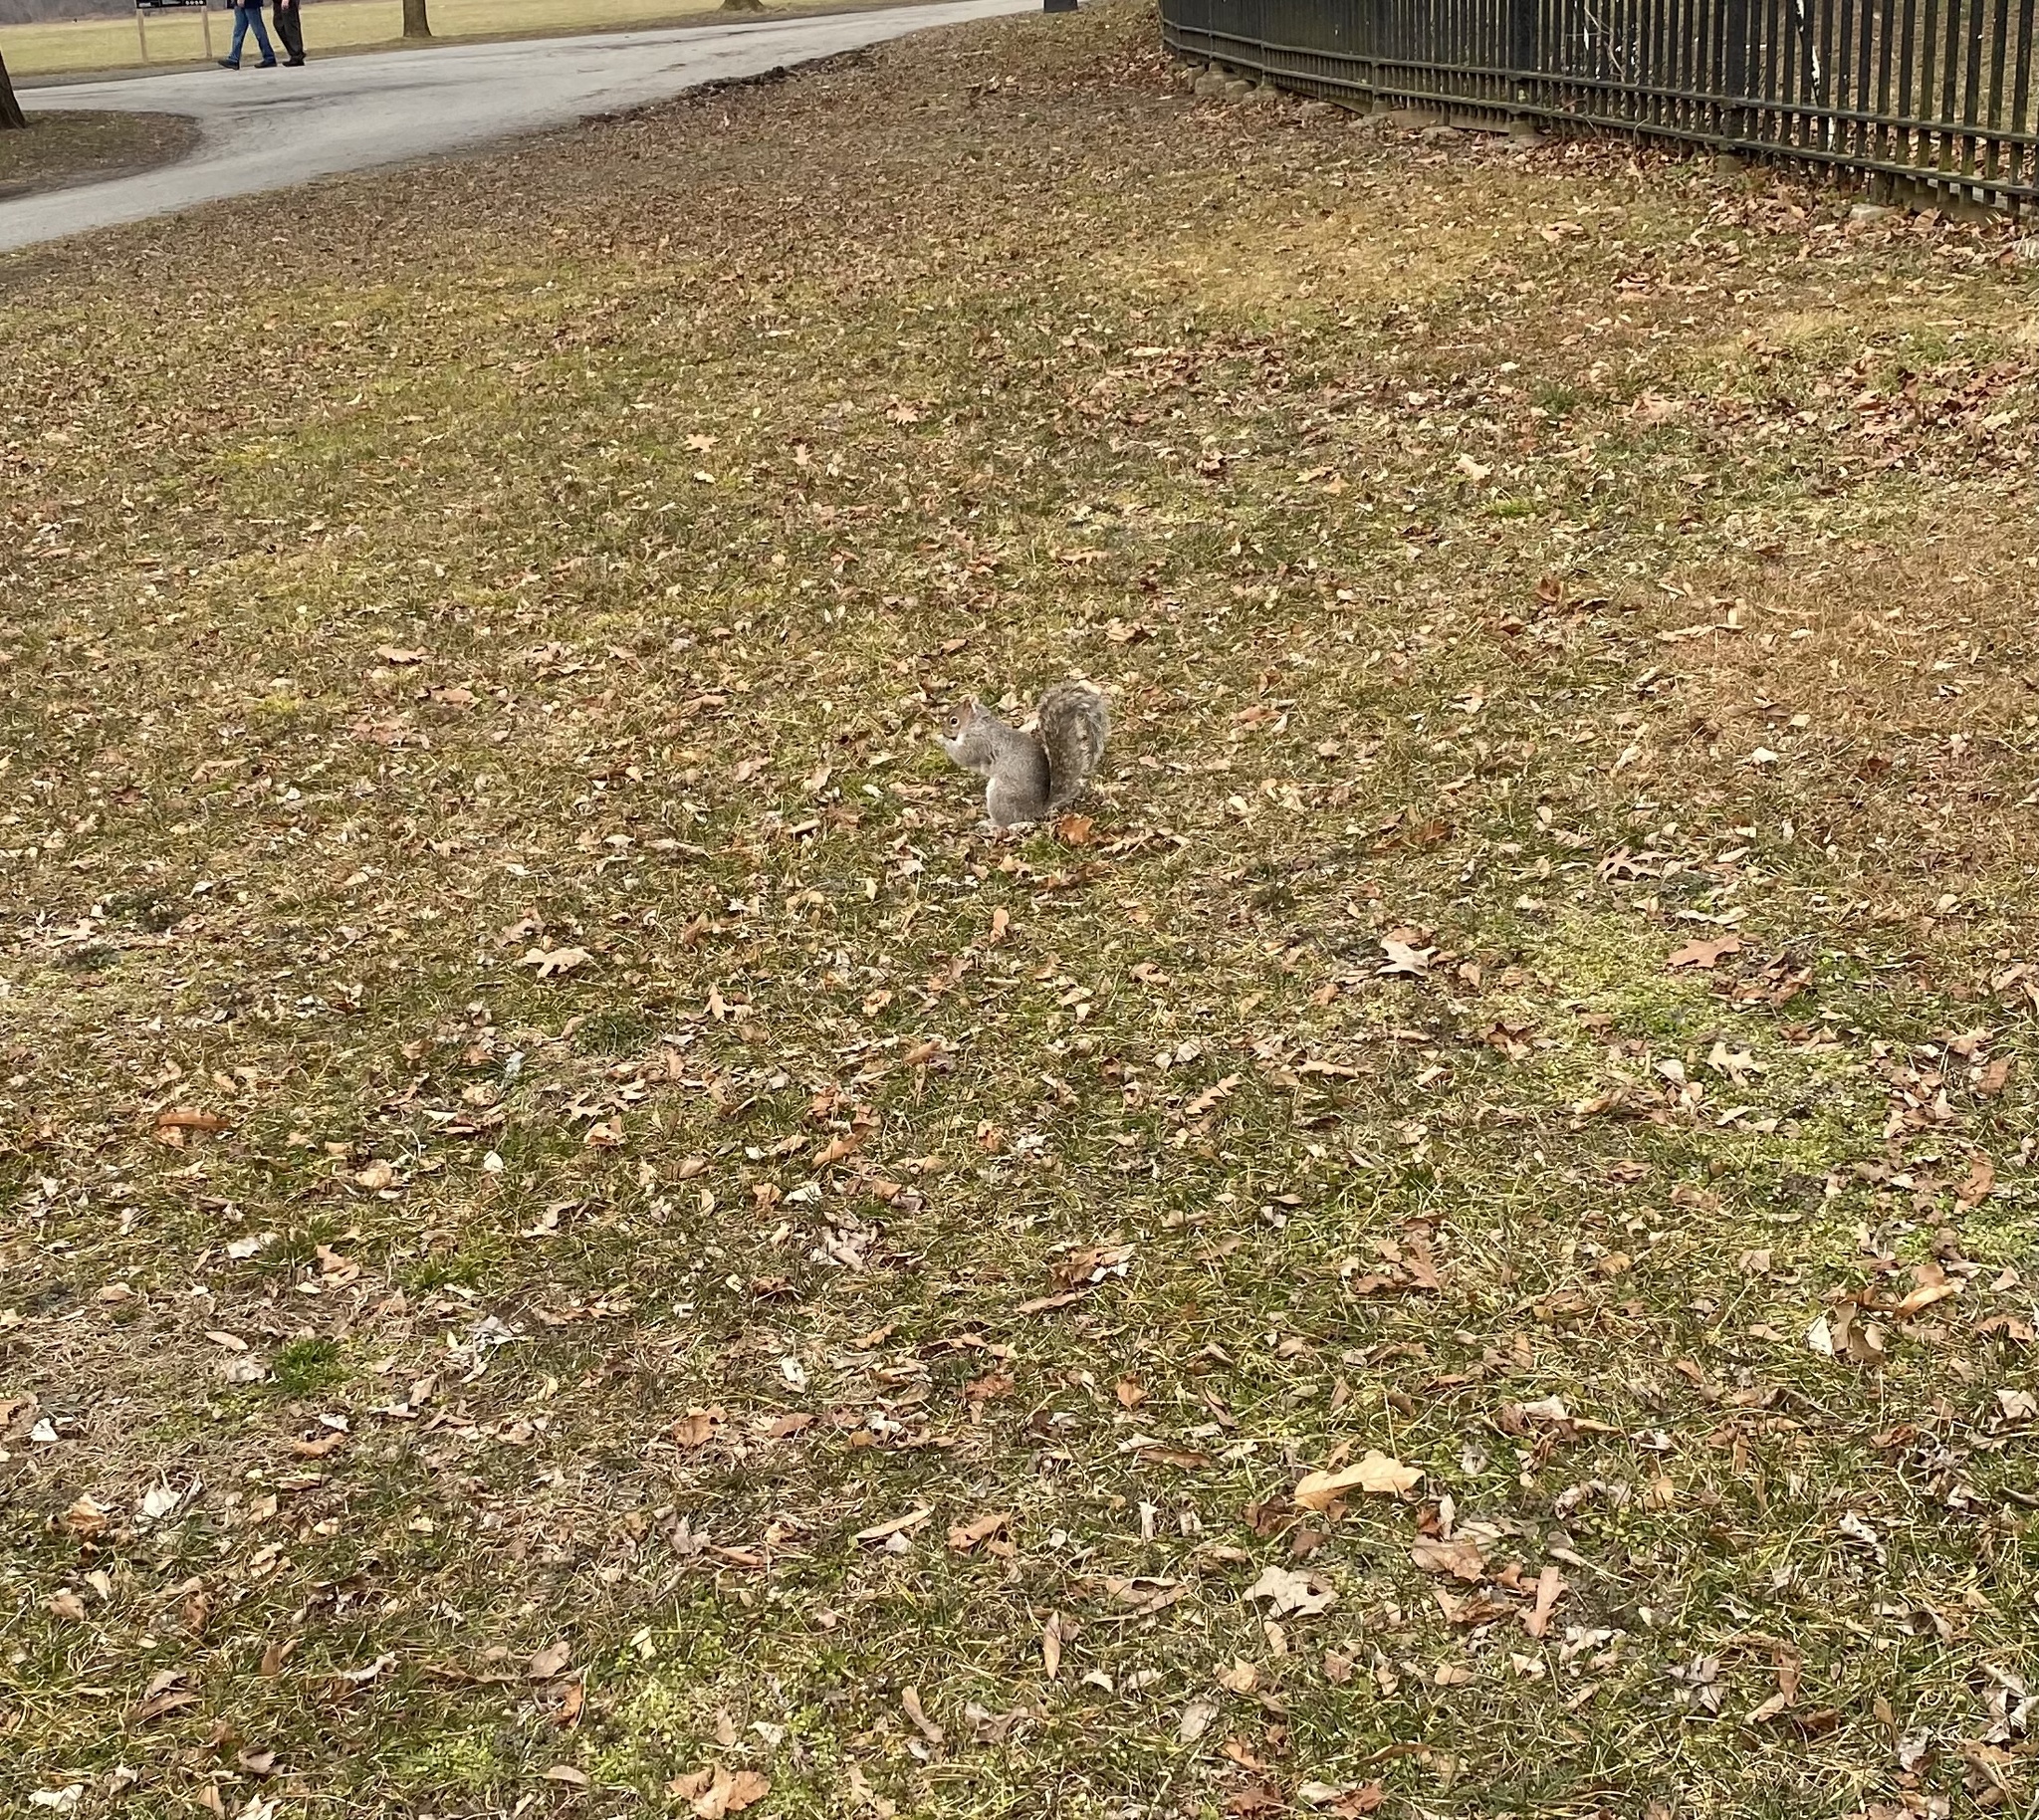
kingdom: Animalia
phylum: Chordata
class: Mammalia
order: Rodentia
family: Sciuridae
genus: Sciurus
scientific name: Sciurus carolinensis
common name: Eastern gray squirrel
